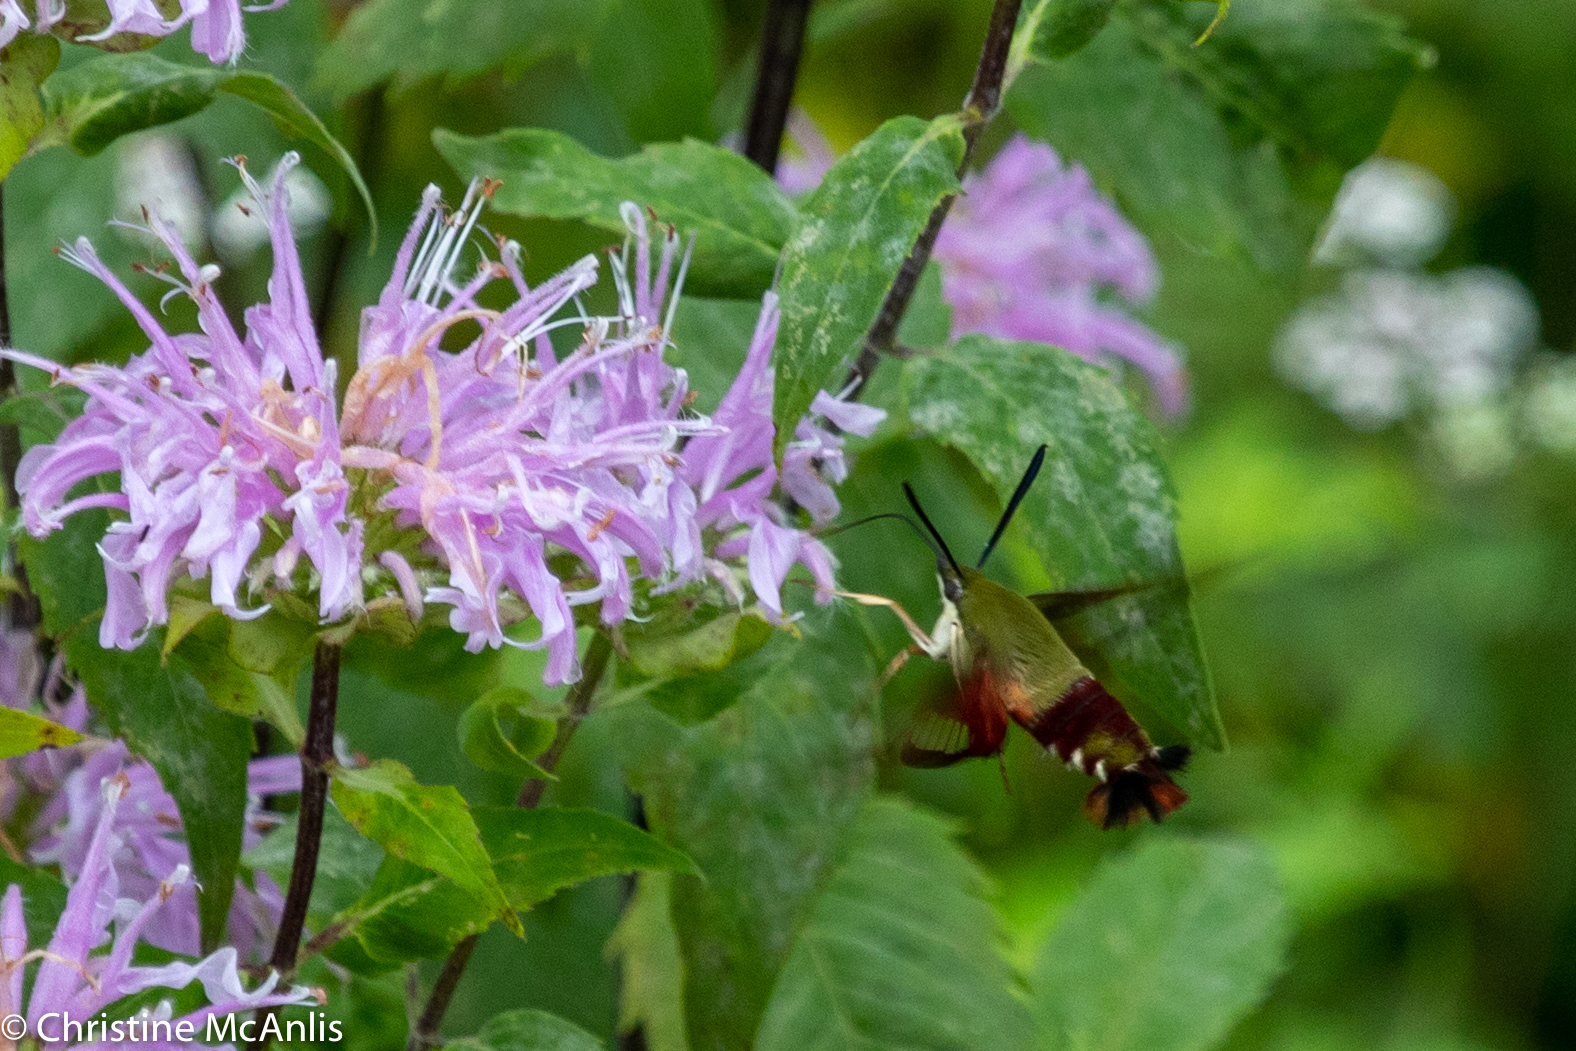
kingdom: Animalia
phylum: Arthropoda
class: Insecta
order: Lepidoptera
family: Sphingidae
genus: Hemaris
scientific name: Hemaris thysbe
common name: Common clear-wing
